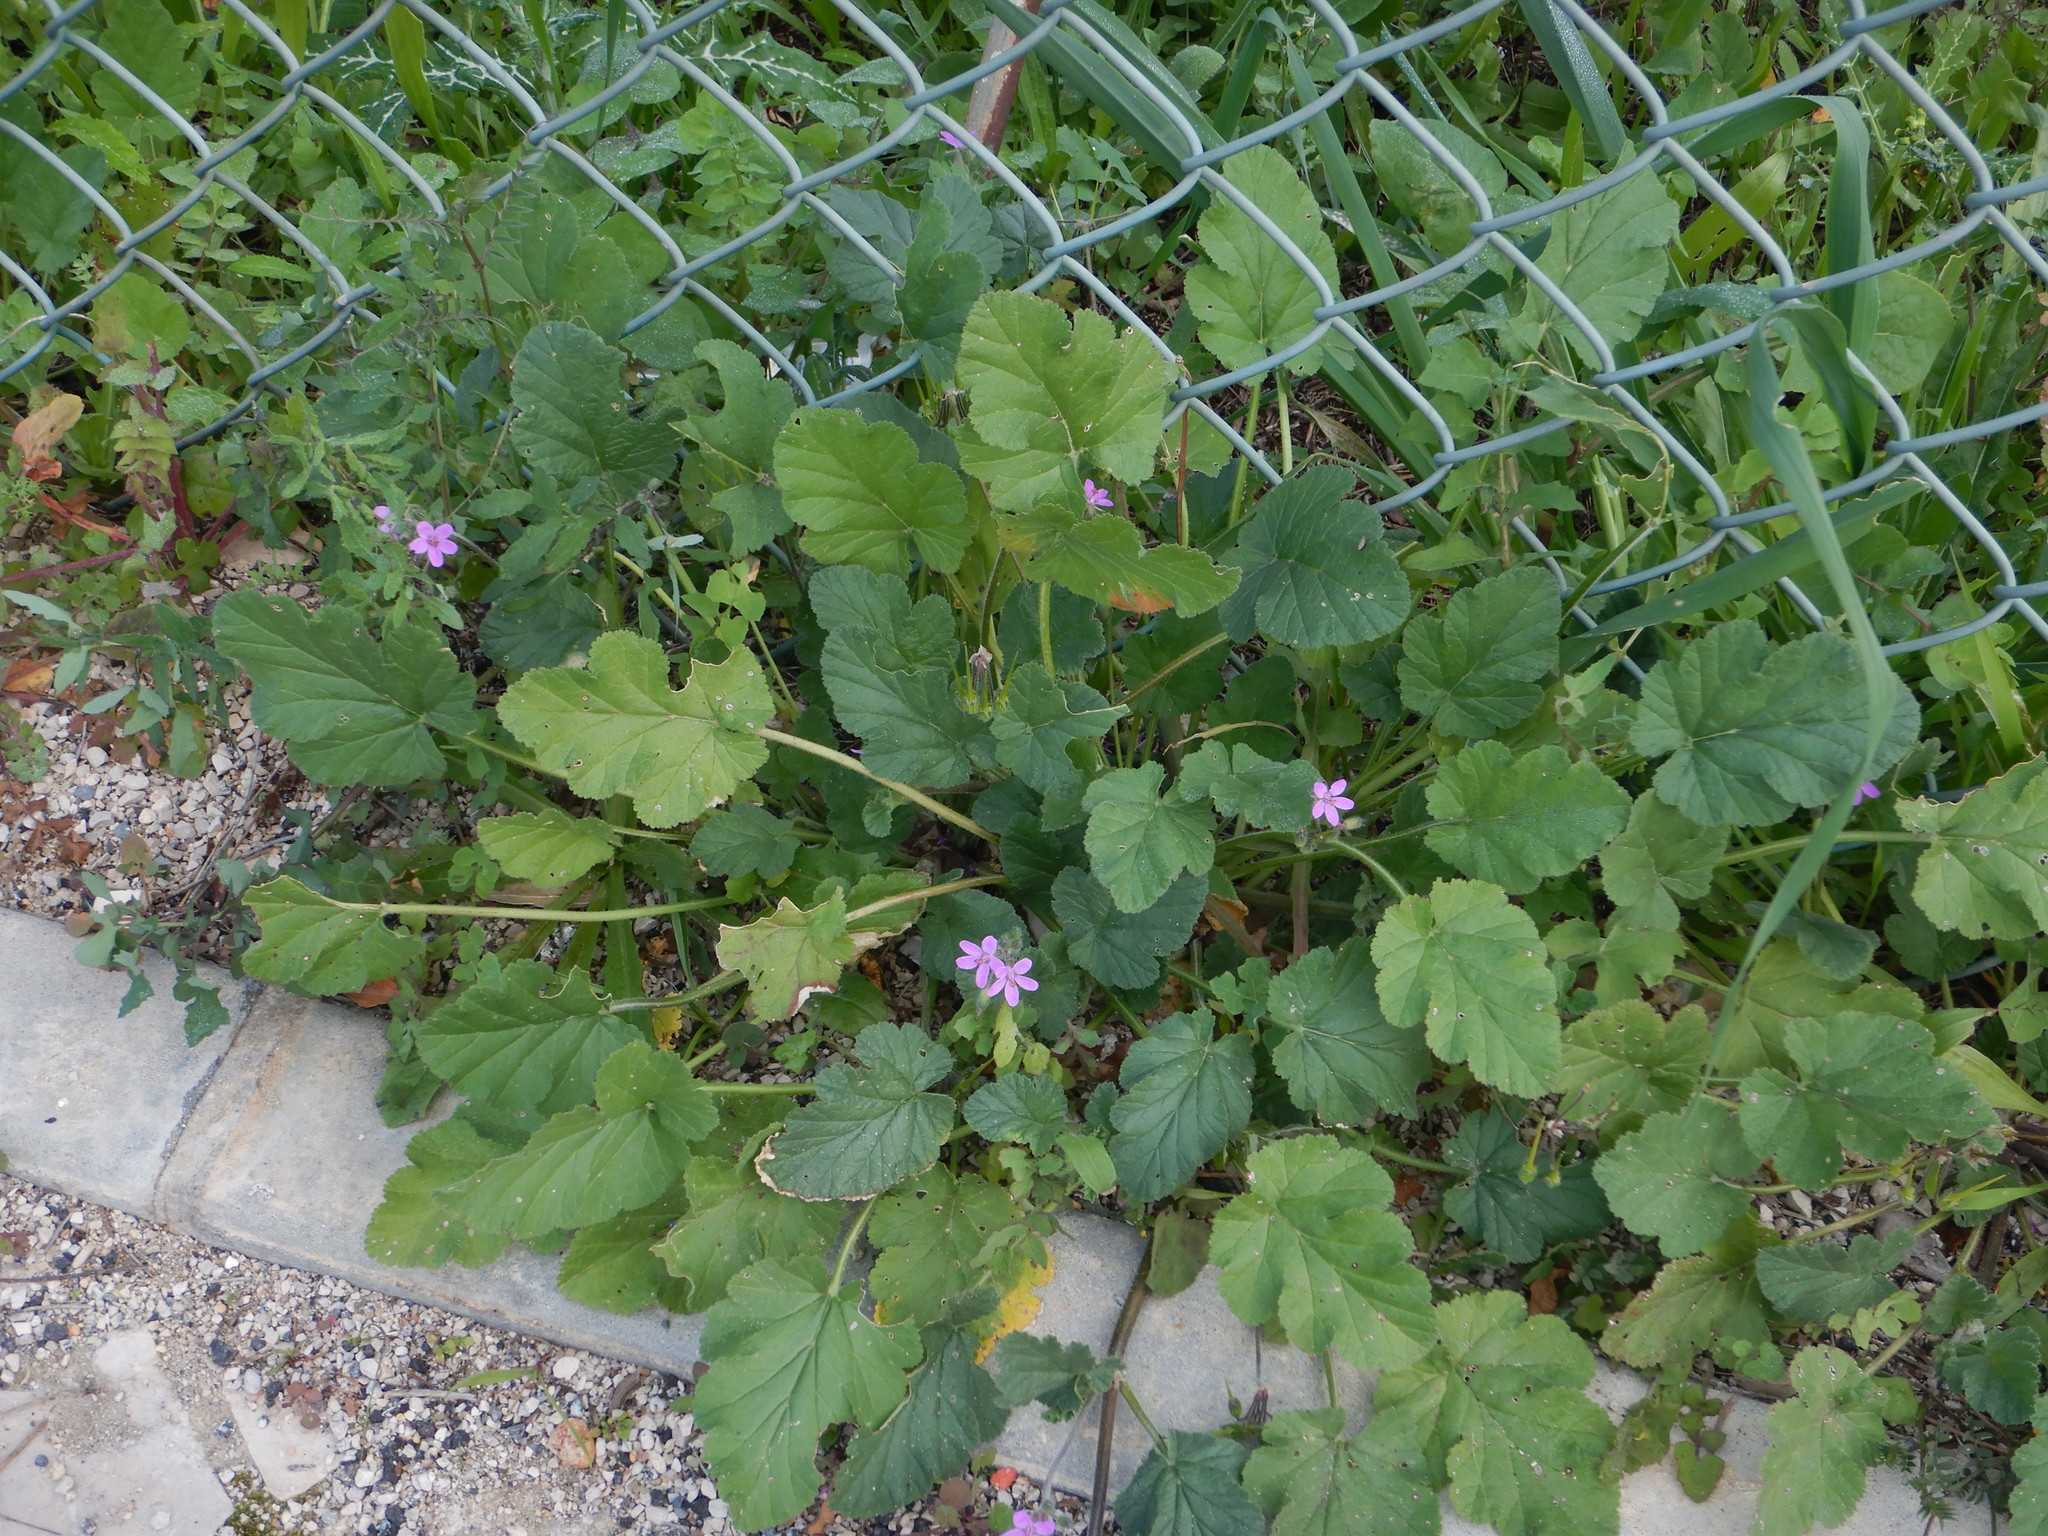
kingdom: Plantae
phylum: Tracheophyta
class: Magnoliopsida
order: Geraniales
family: Geraniaceae
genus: Erodium
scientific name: Erodium malacoides
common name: Soft stork's-bill
